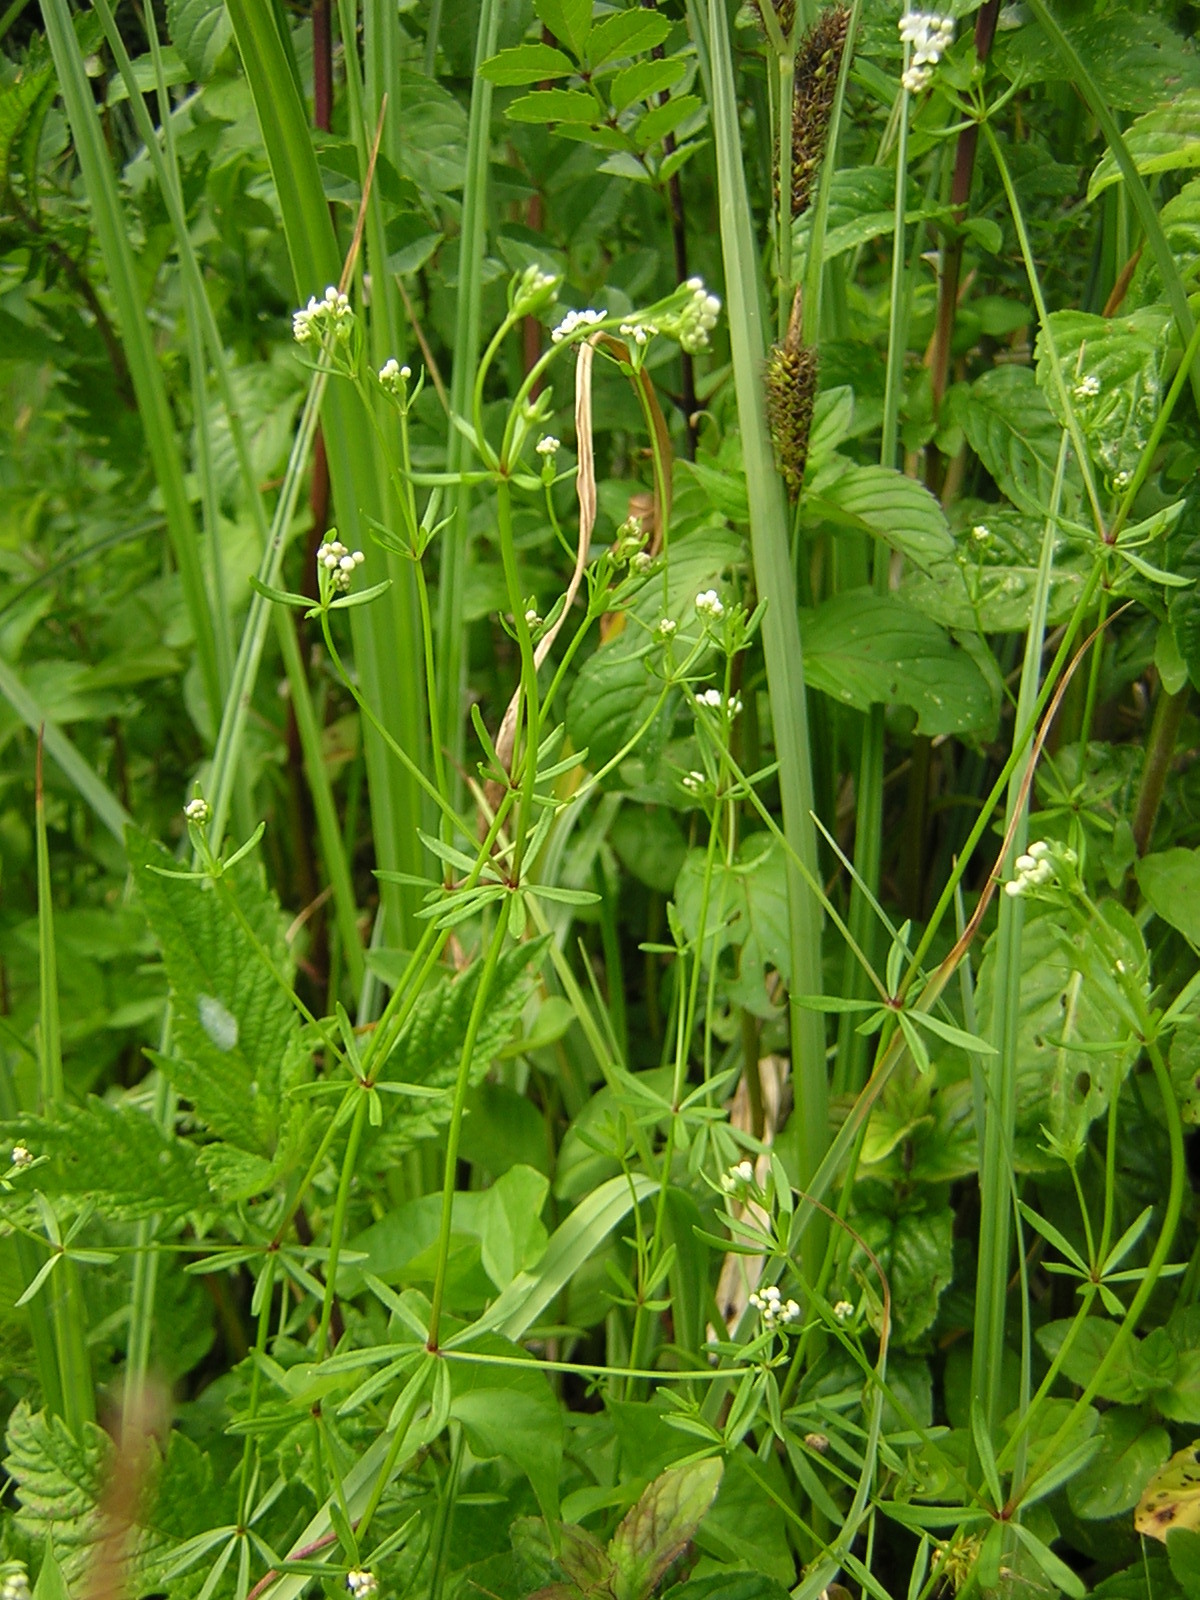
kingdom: Plantae
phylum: Tracheophyta
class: Magnoliopsida
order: Gentianales
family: Rubiaceae
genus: Galium
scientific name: Galium debile
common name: Slender marsh-bedstraw
